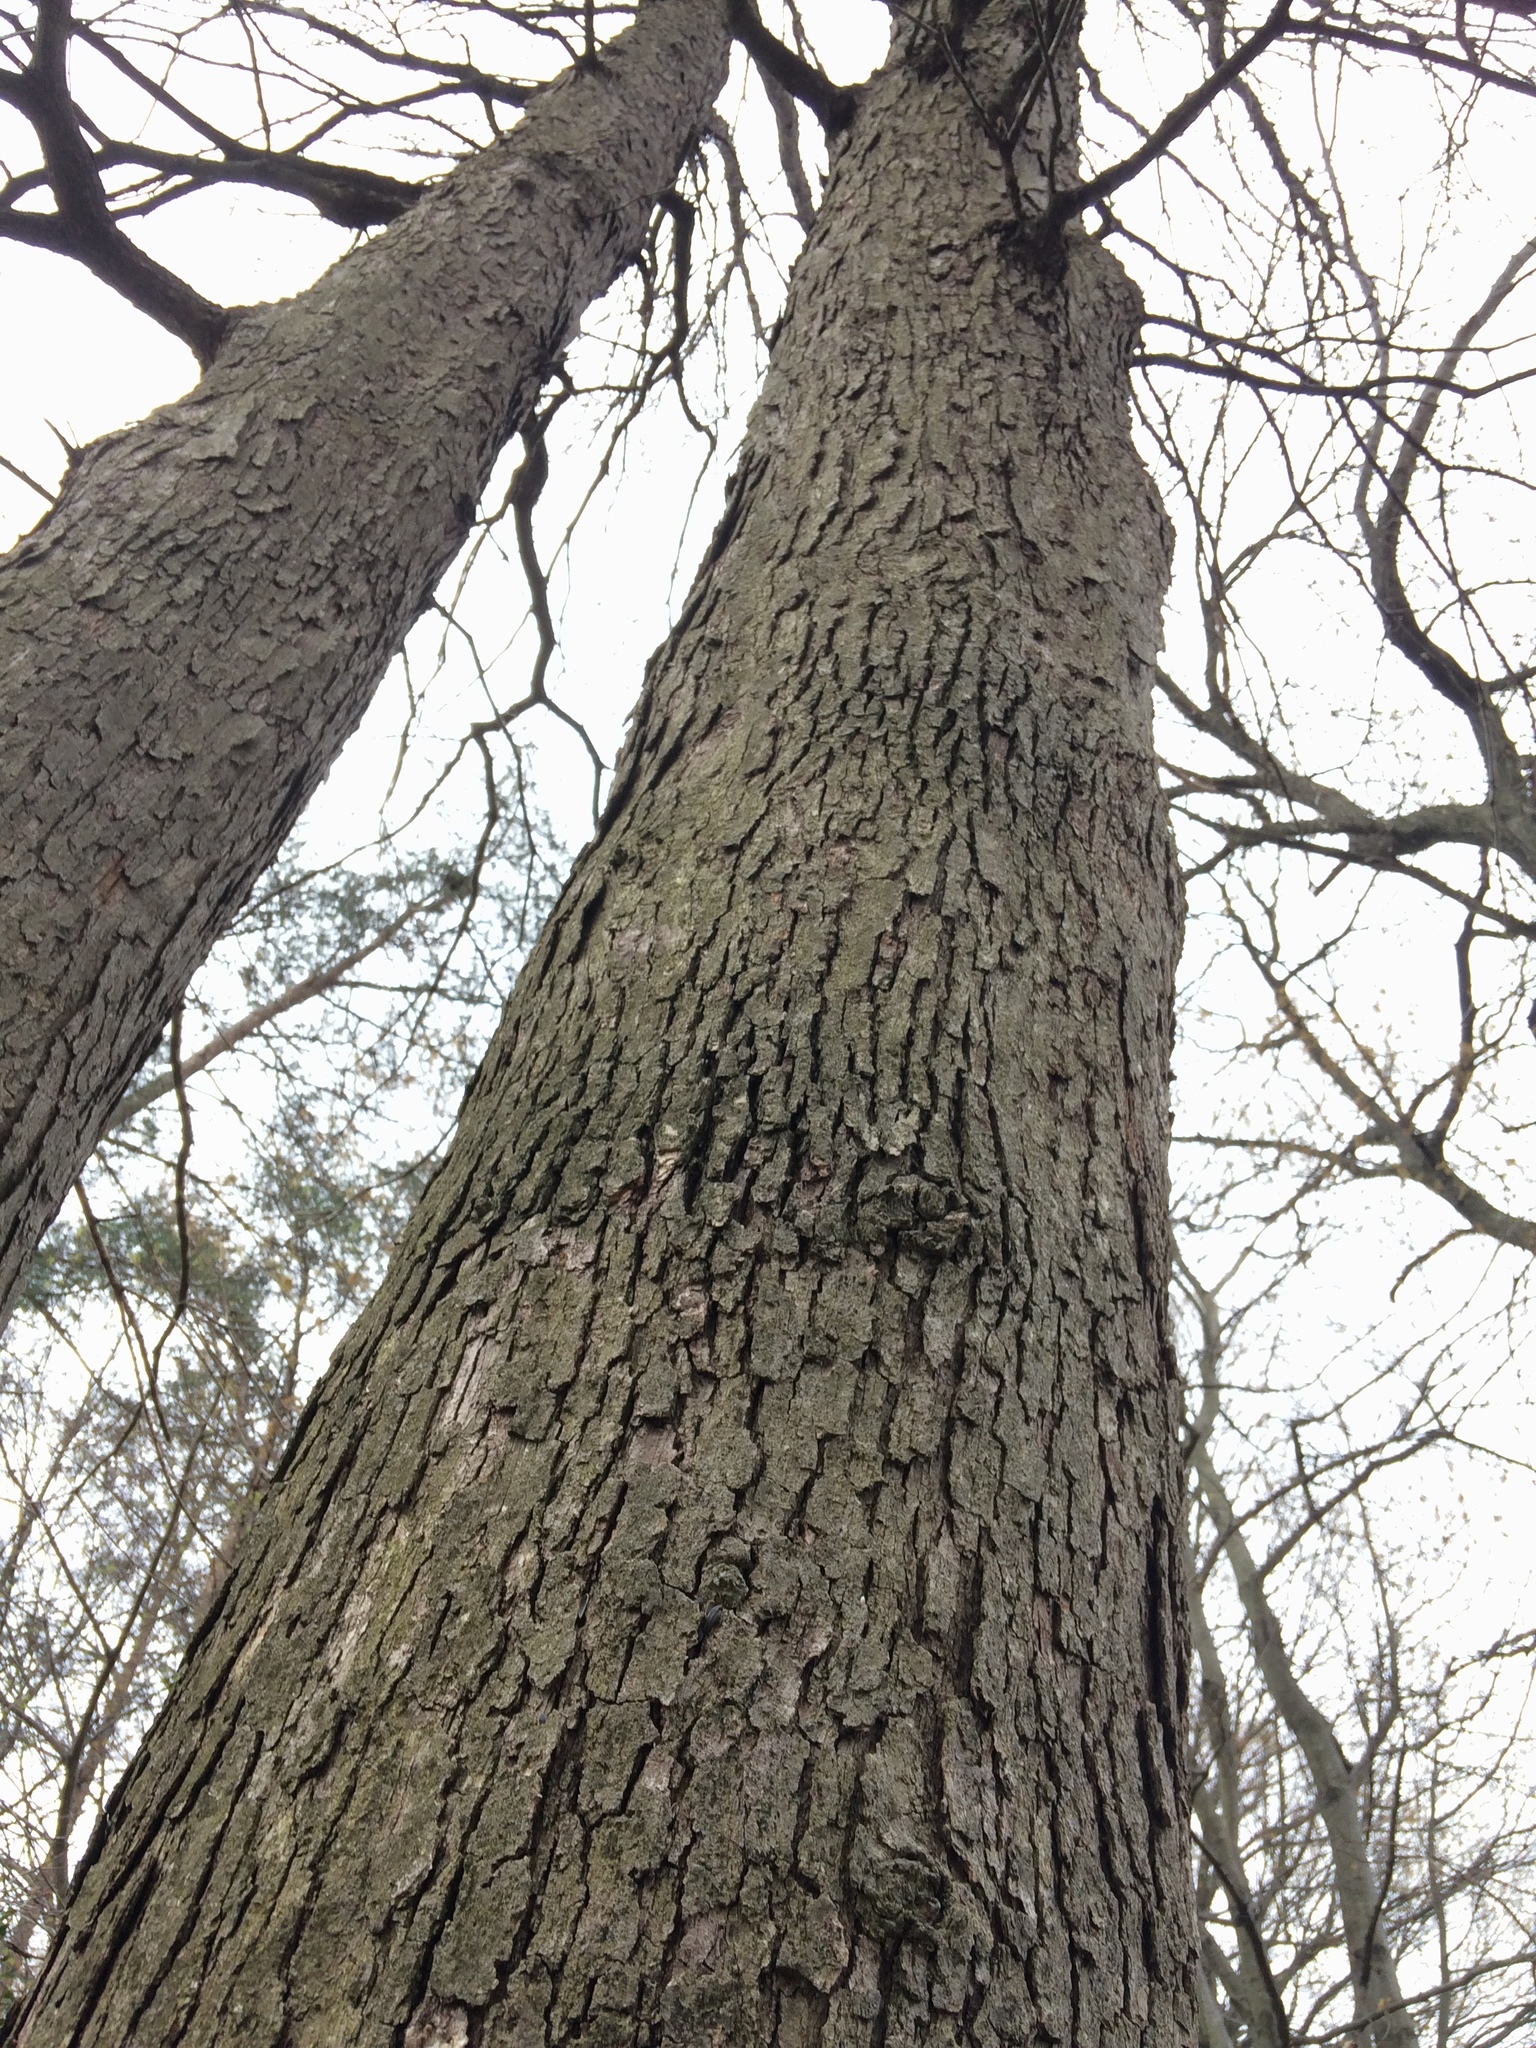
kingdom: Plantae
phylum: Tracheophyta
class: Magnoliopsida
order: Fagales
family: Fagaceae
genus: Quercus
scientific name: Quercus alba
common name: White oak
